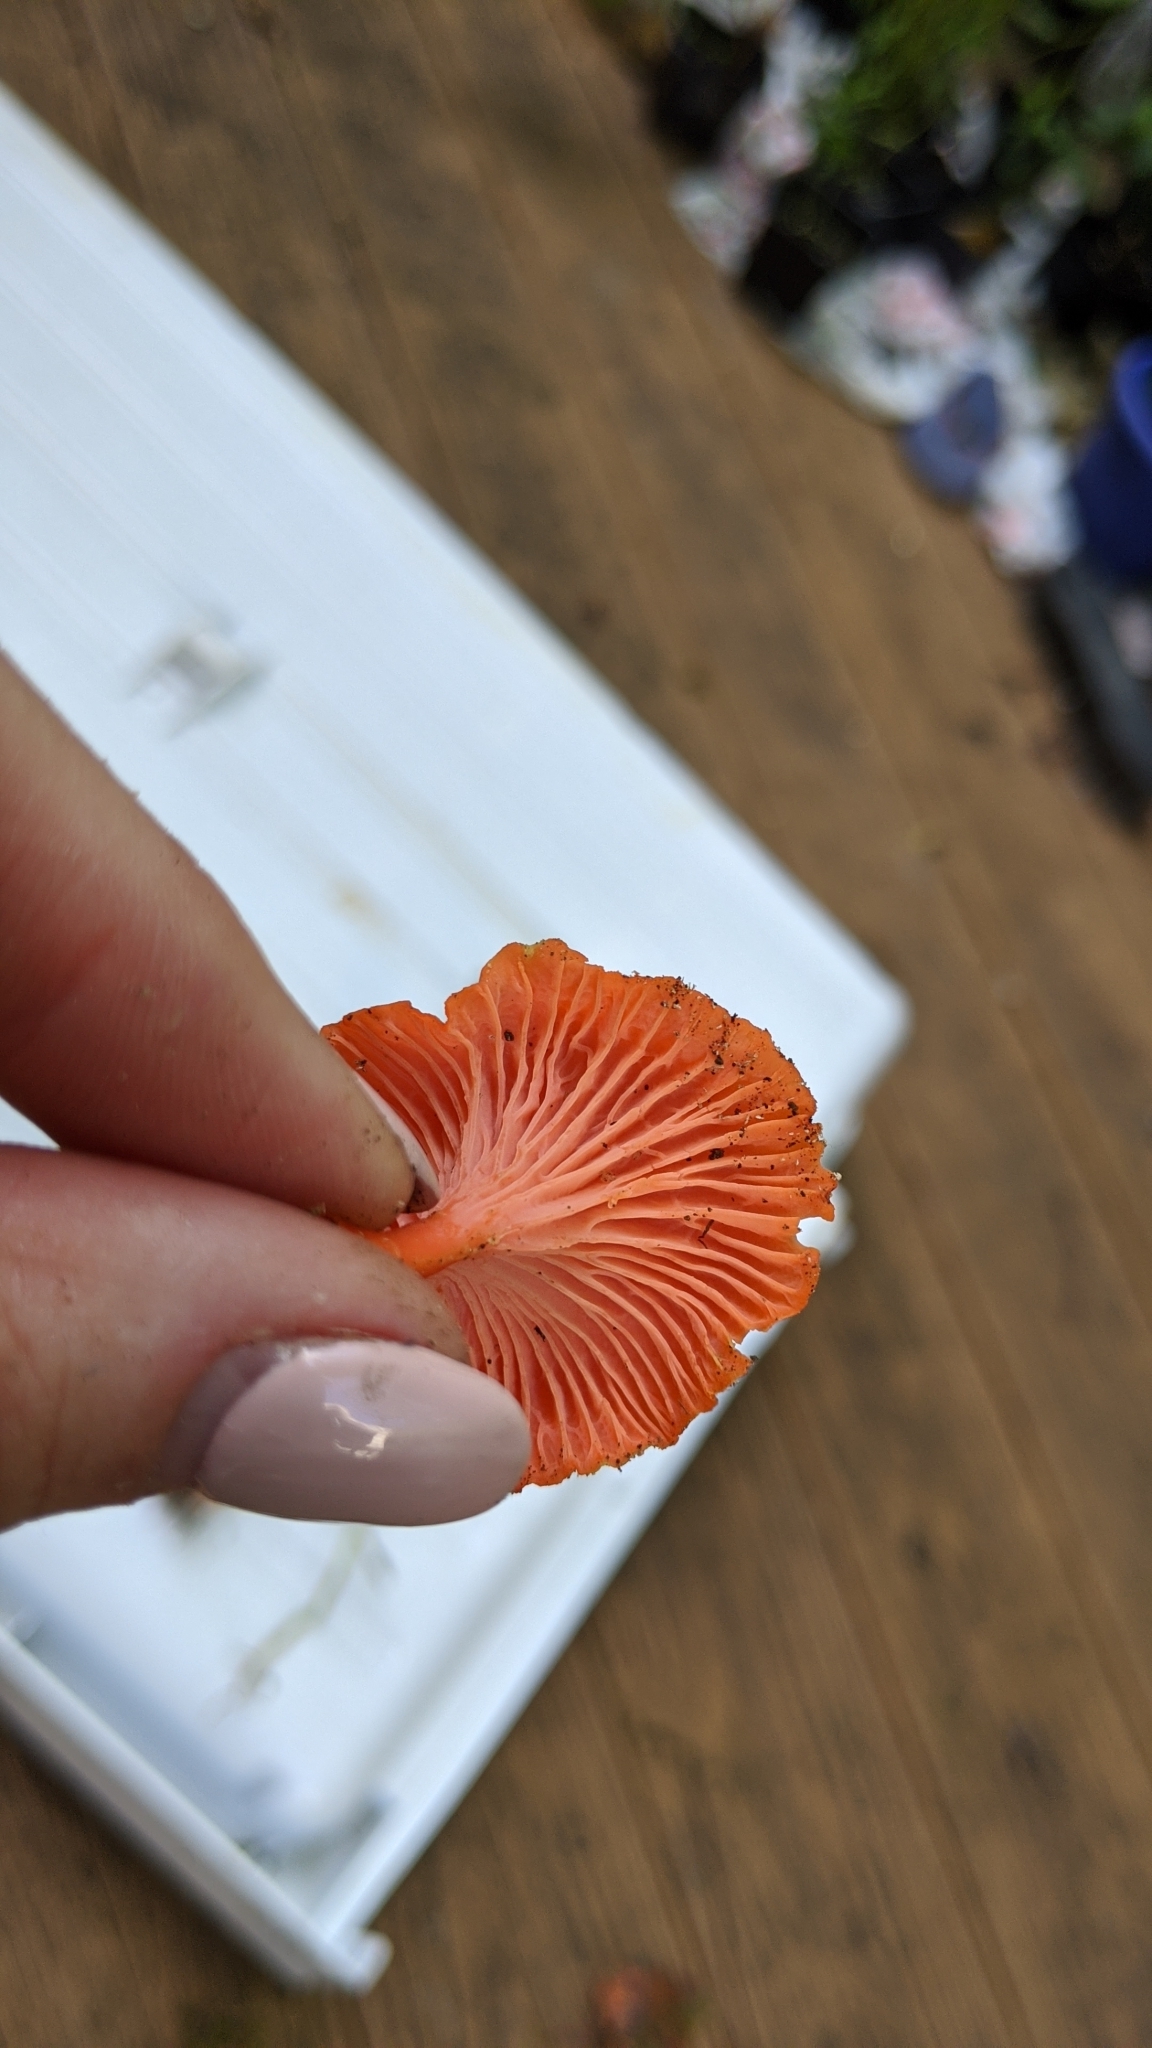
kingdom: Fungi
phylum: Basidiomycota
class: Agaricomycetes
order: Cantharellales
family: Hydnaceae
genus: Cantharellus
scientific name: Cantharellus cinnabarinus
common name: Cinnabar chanterelle
